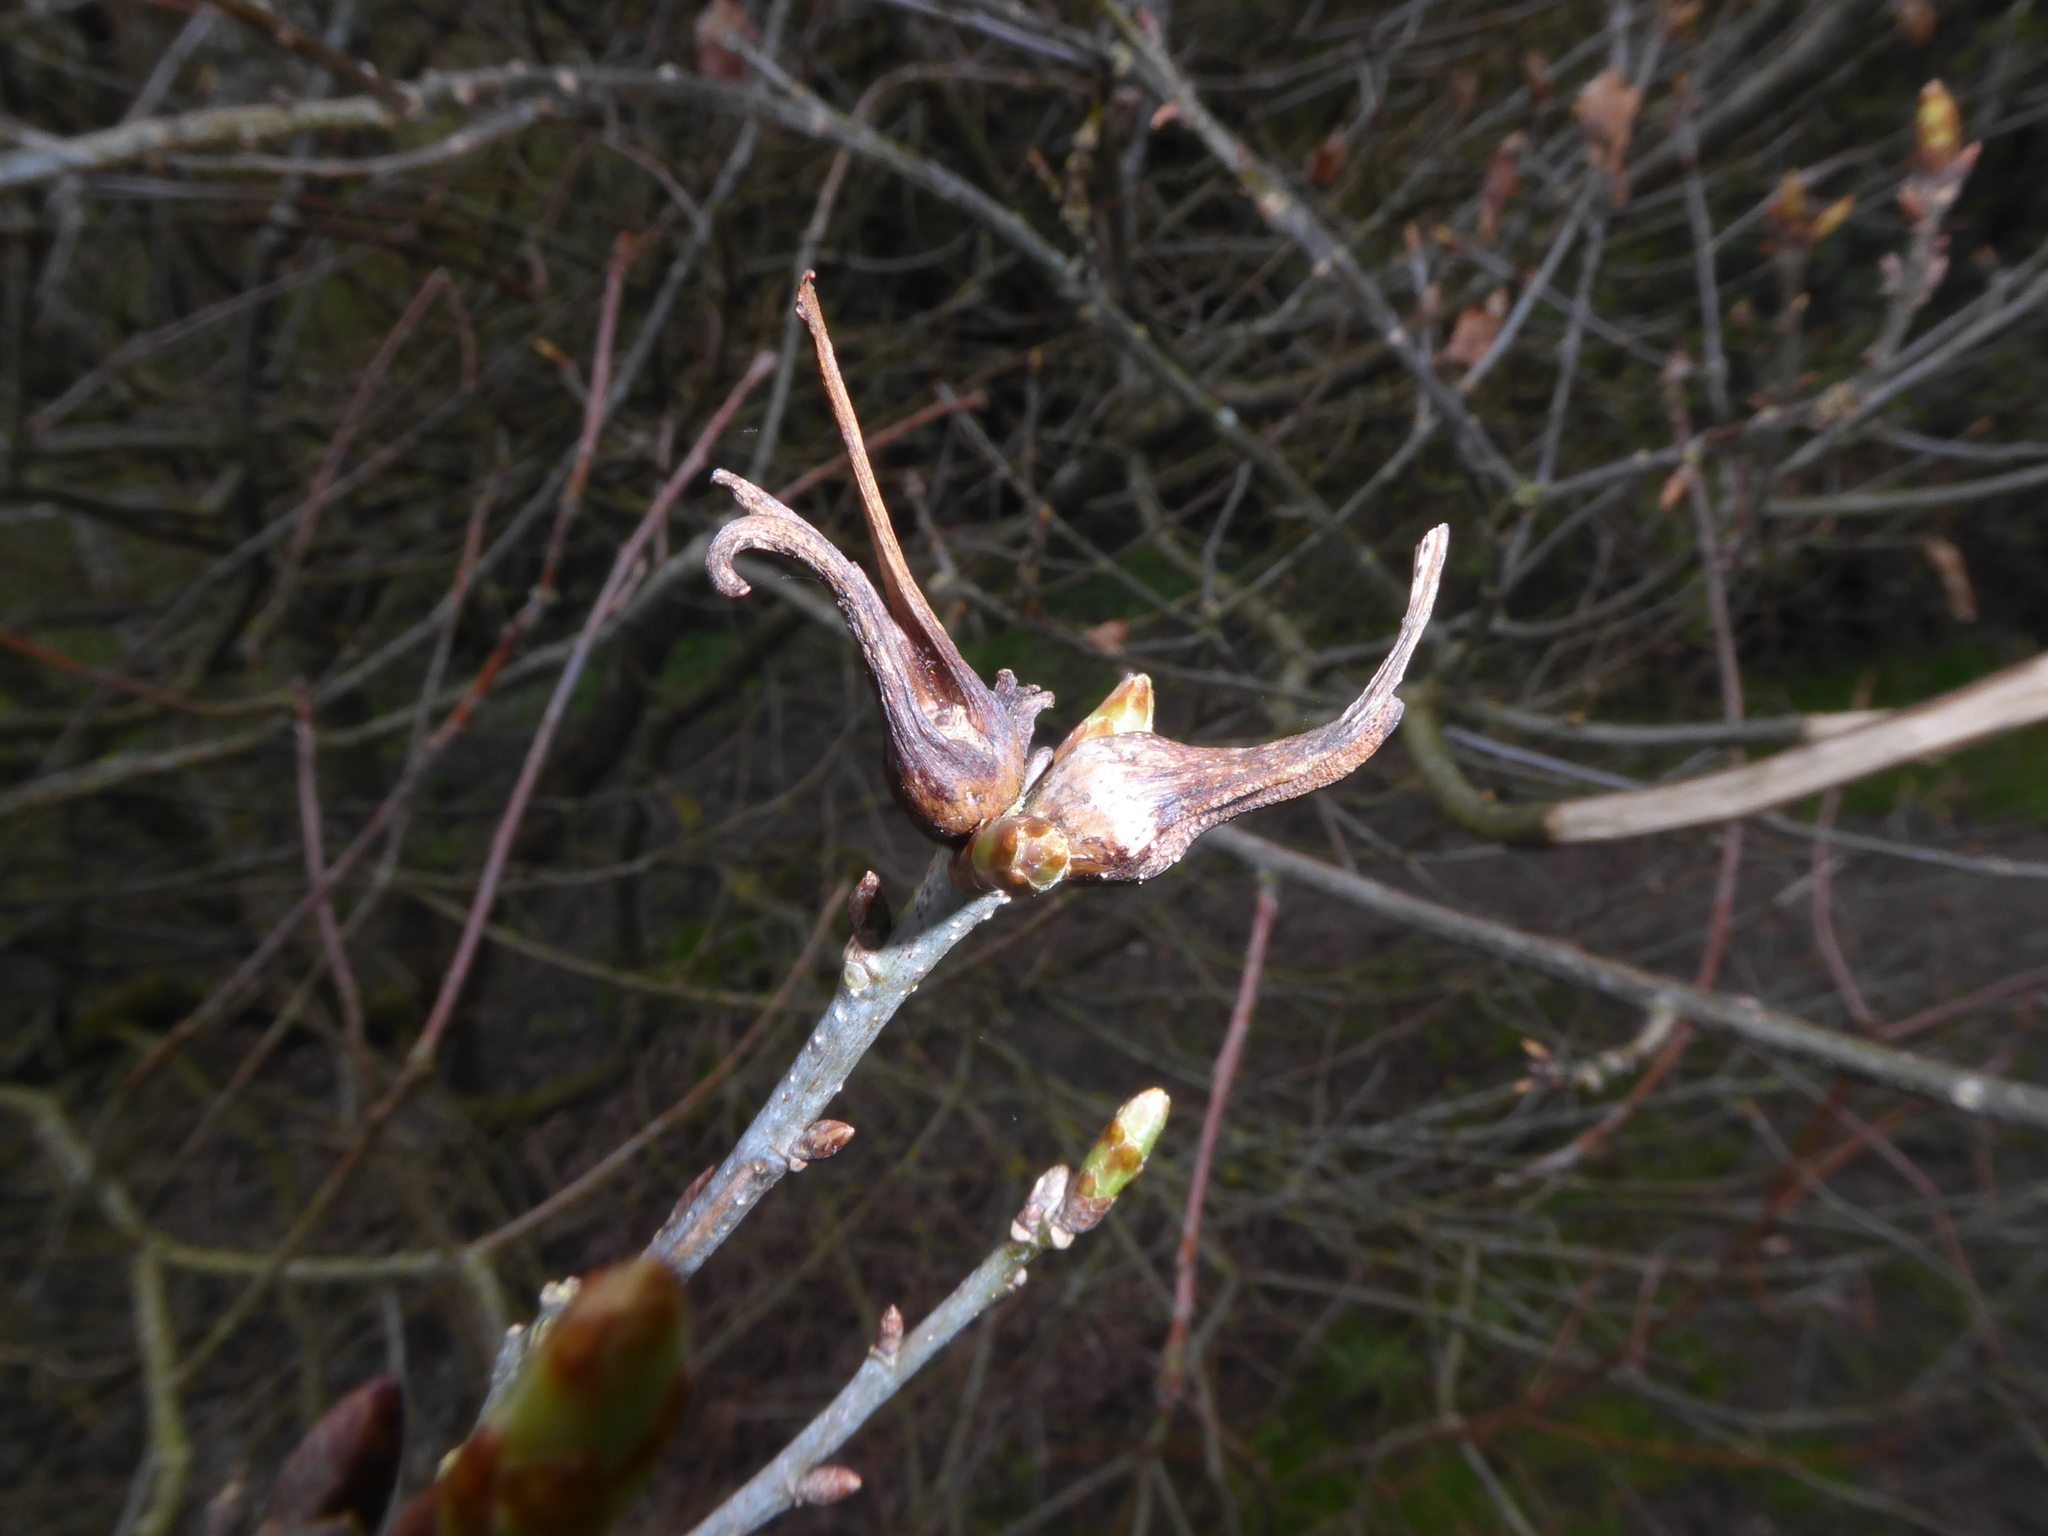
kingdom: Animalia
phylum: Arthropoda
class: Insecta
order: Hymenoptera
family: Cynipidae
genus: Andricus
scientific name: Andricus aries
